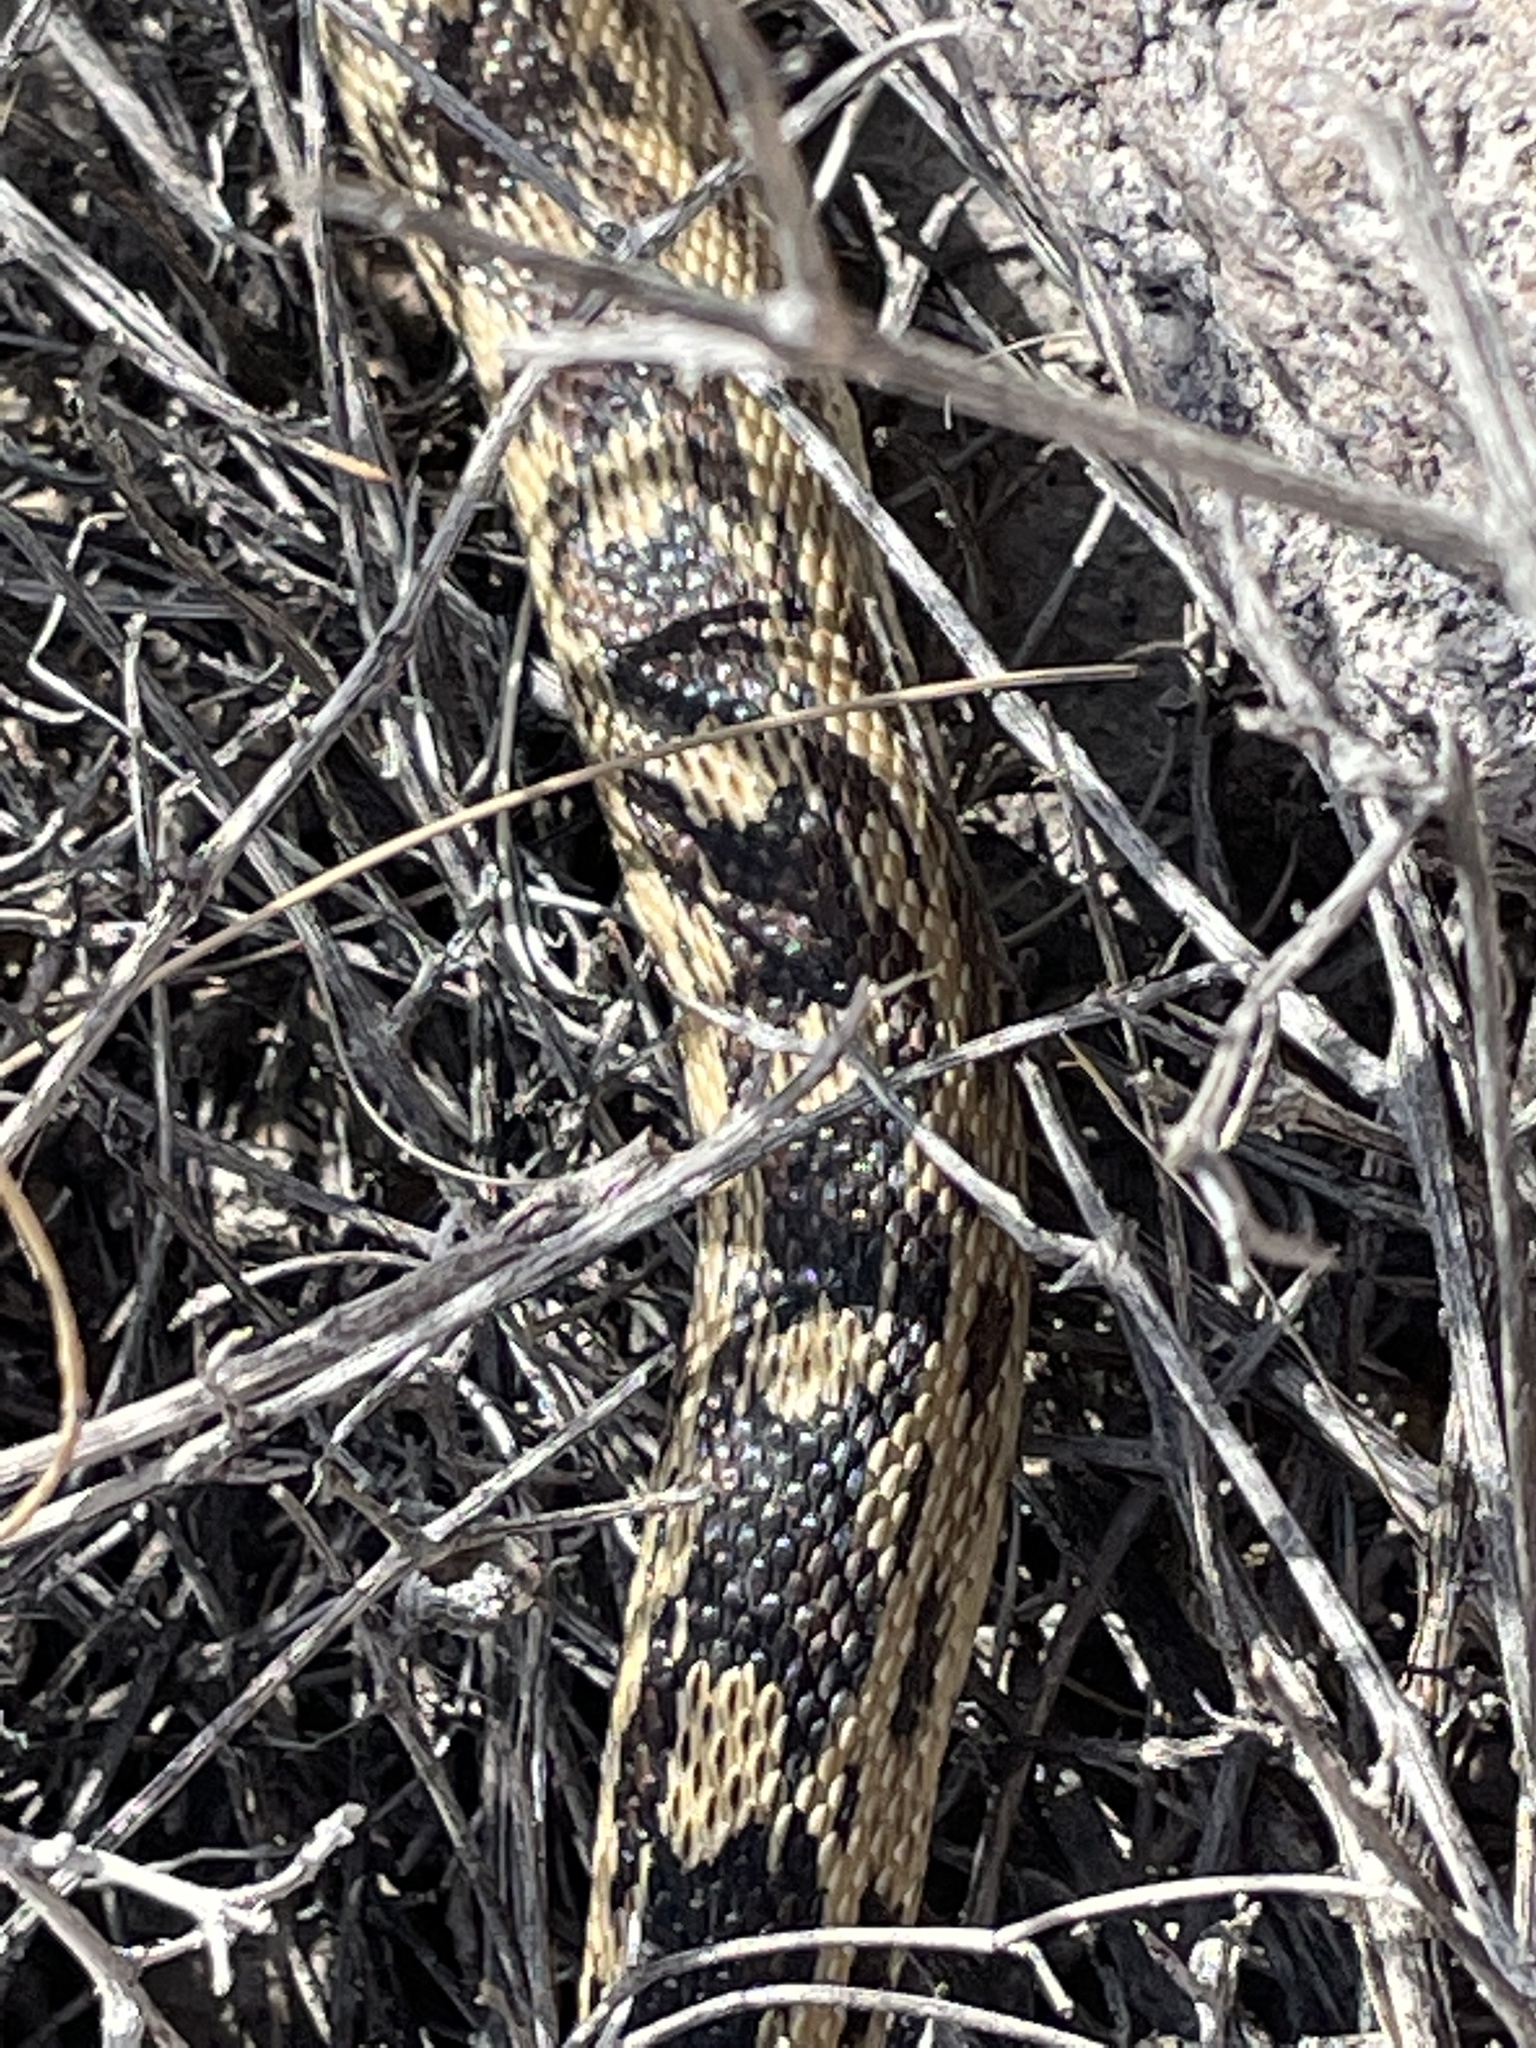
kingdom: Animalia
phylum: Chordata
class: Squamata
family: Colubridae
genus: Pituophis
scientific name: Pituophis catenifer
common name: Gopher snake
